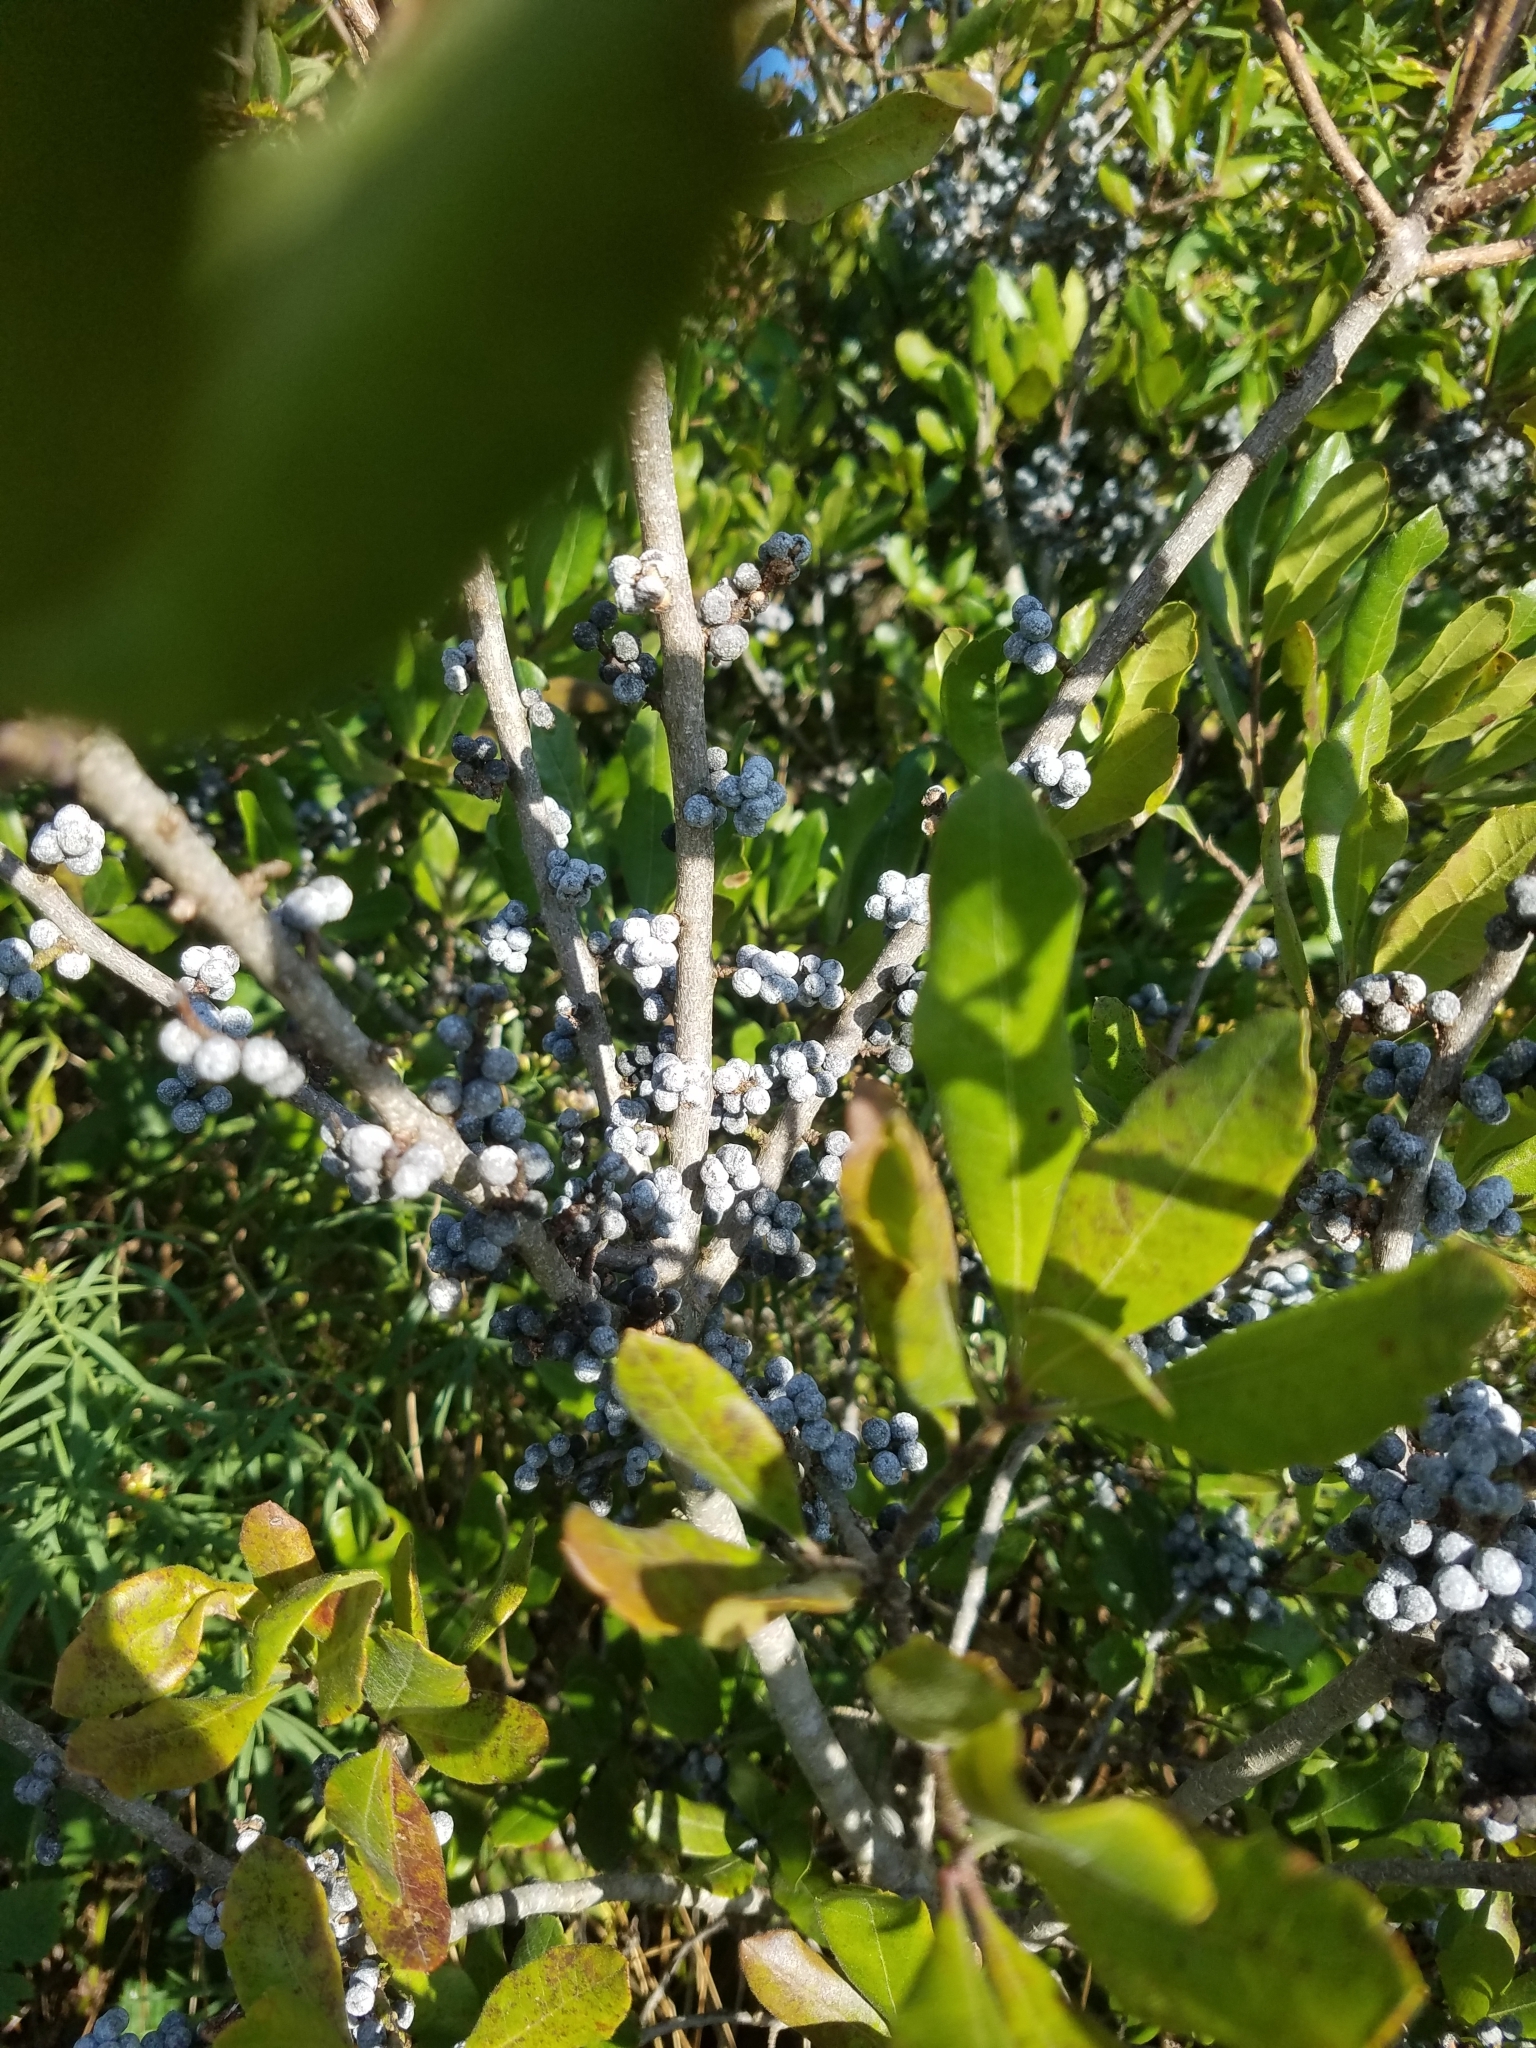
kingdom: Plantae
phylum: Tracheophyta
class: Magnoliopsida
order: Fagales
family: Myricaceae
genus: Morella
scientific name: Morella pensylvanica
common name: Northern bayberry
